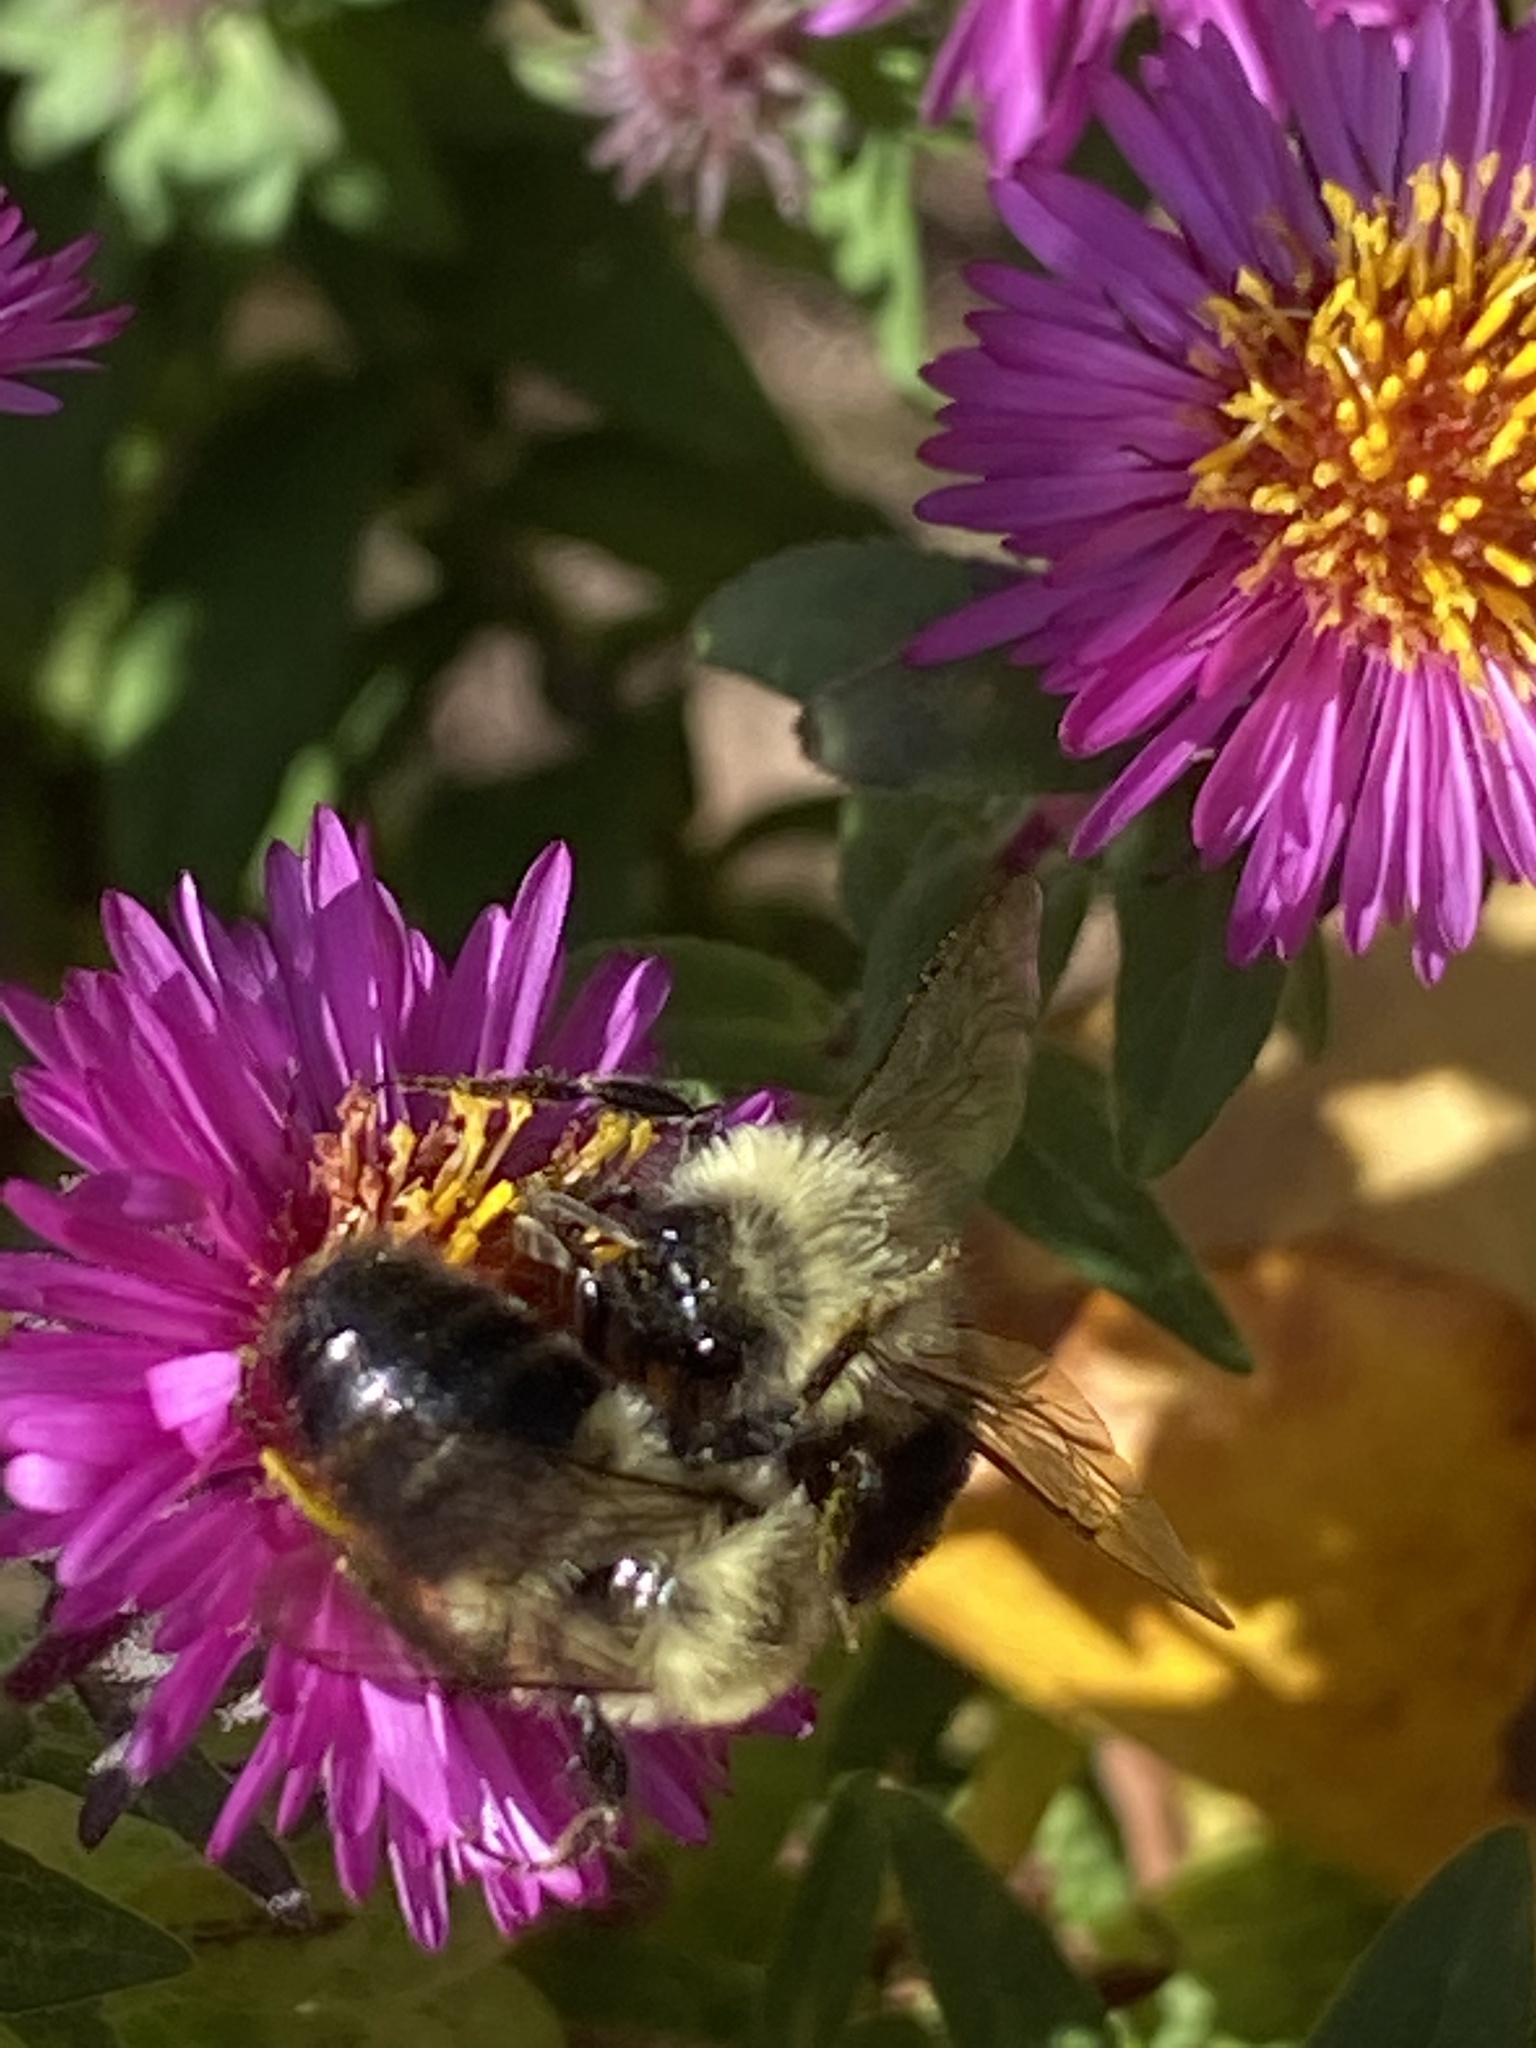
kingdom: Animalia
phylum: Arthropoda
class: Insecta
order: Hymenoptera
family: Apidae
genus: Bombus
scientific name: Bombus impatiens
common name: Common eastern bumble bee
